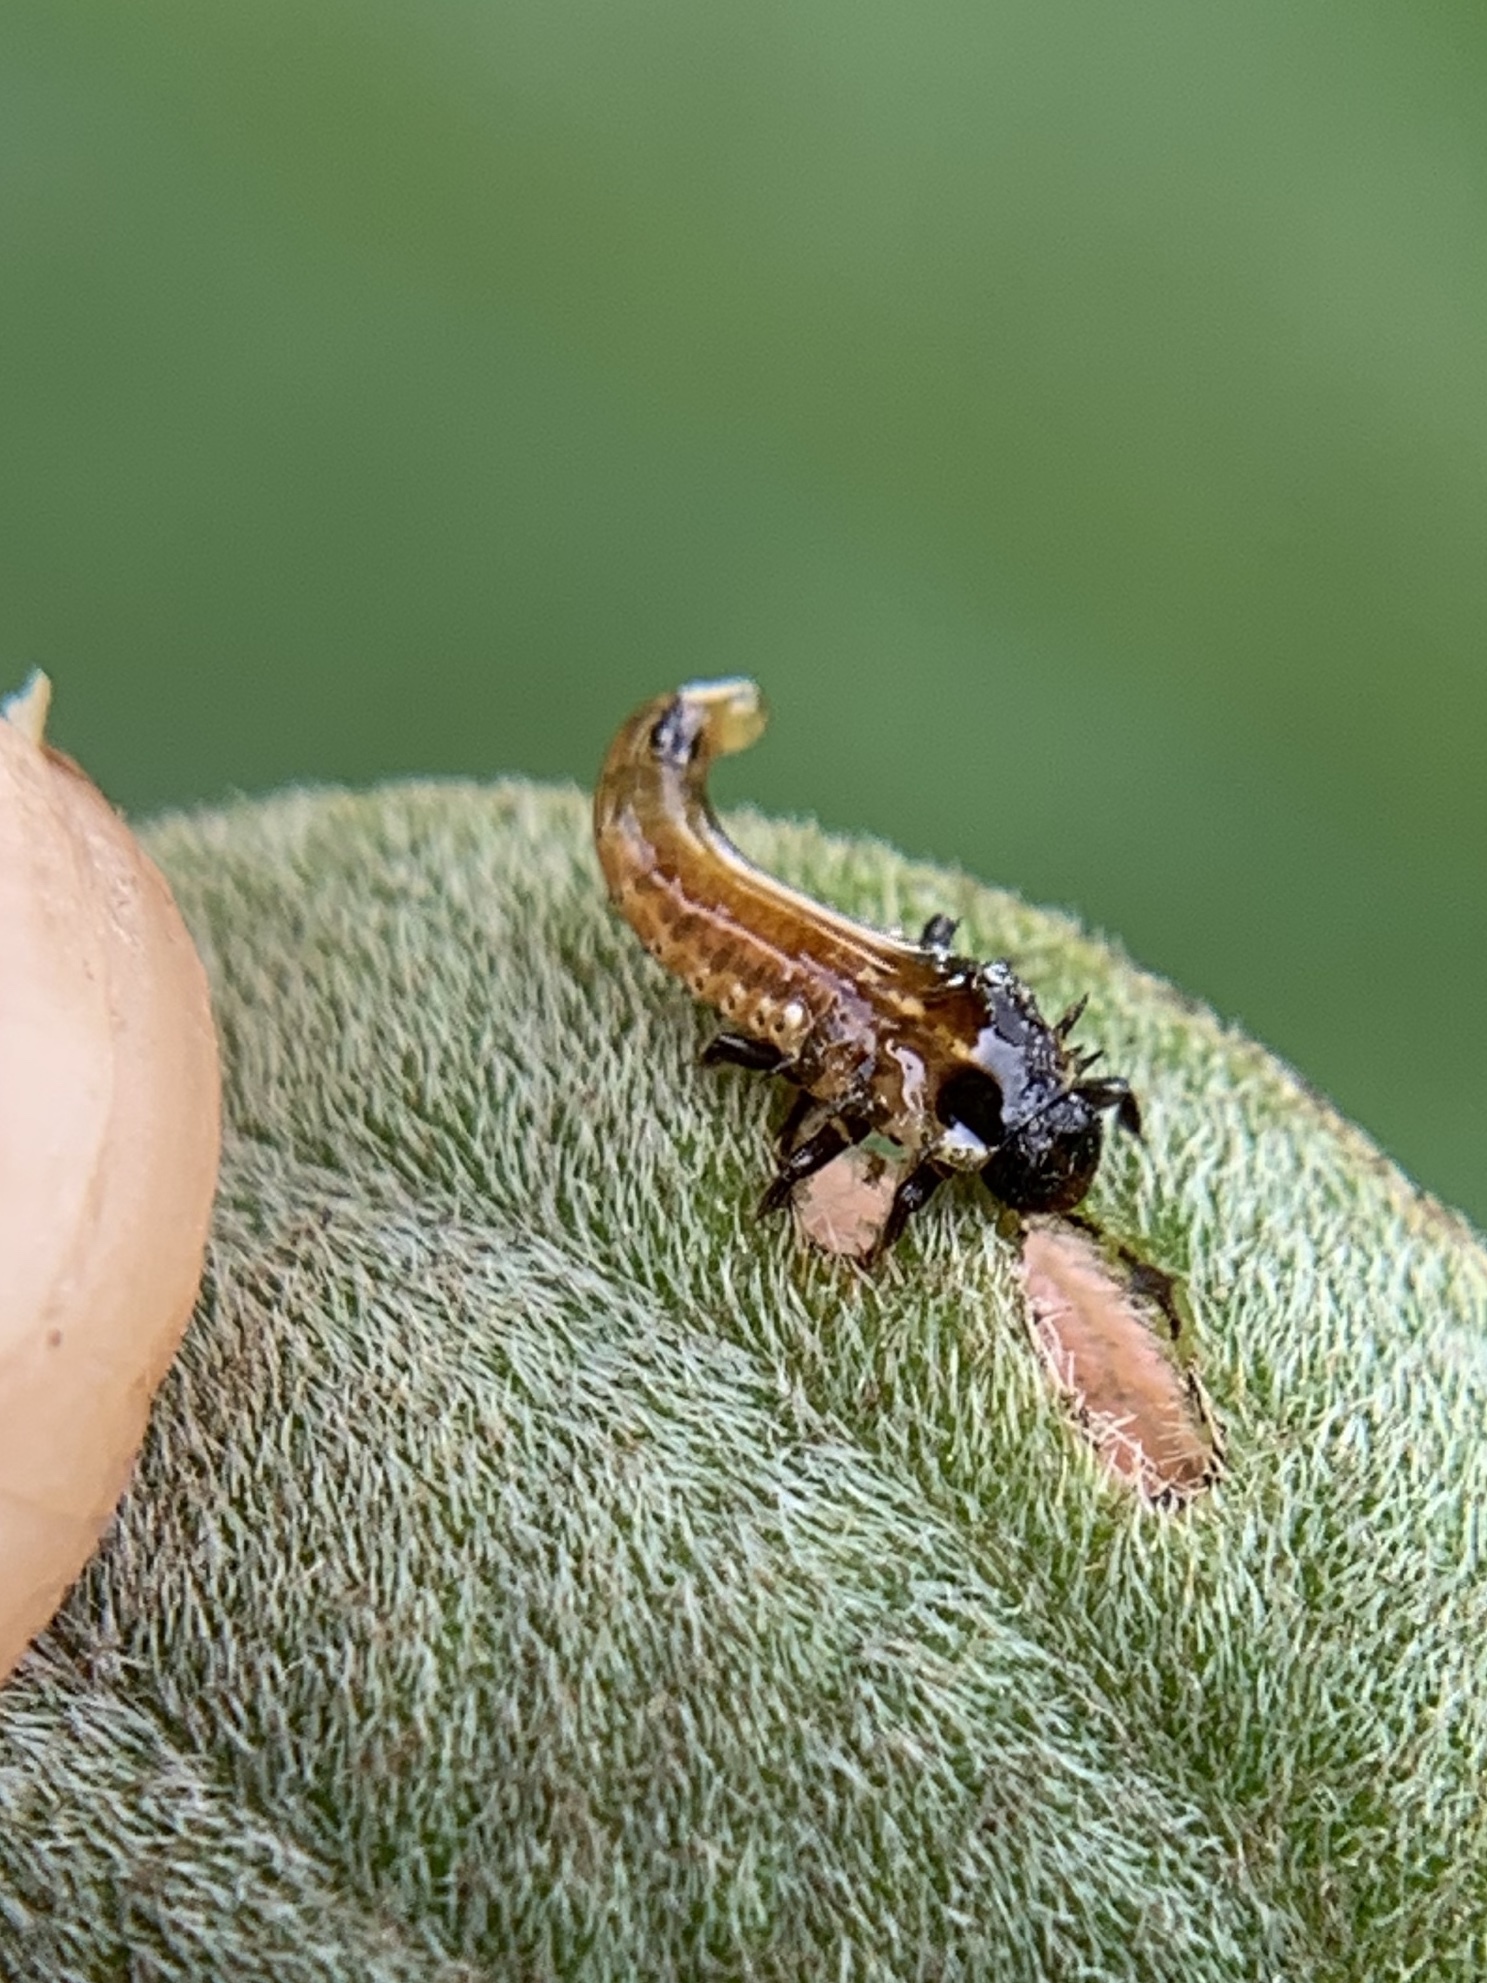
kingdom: Animalia
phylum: Arthropoda
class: Insecta
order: Coleoptera
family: Chrysomelidae
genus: Eurypepla
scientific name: Eurypepla calochroma
